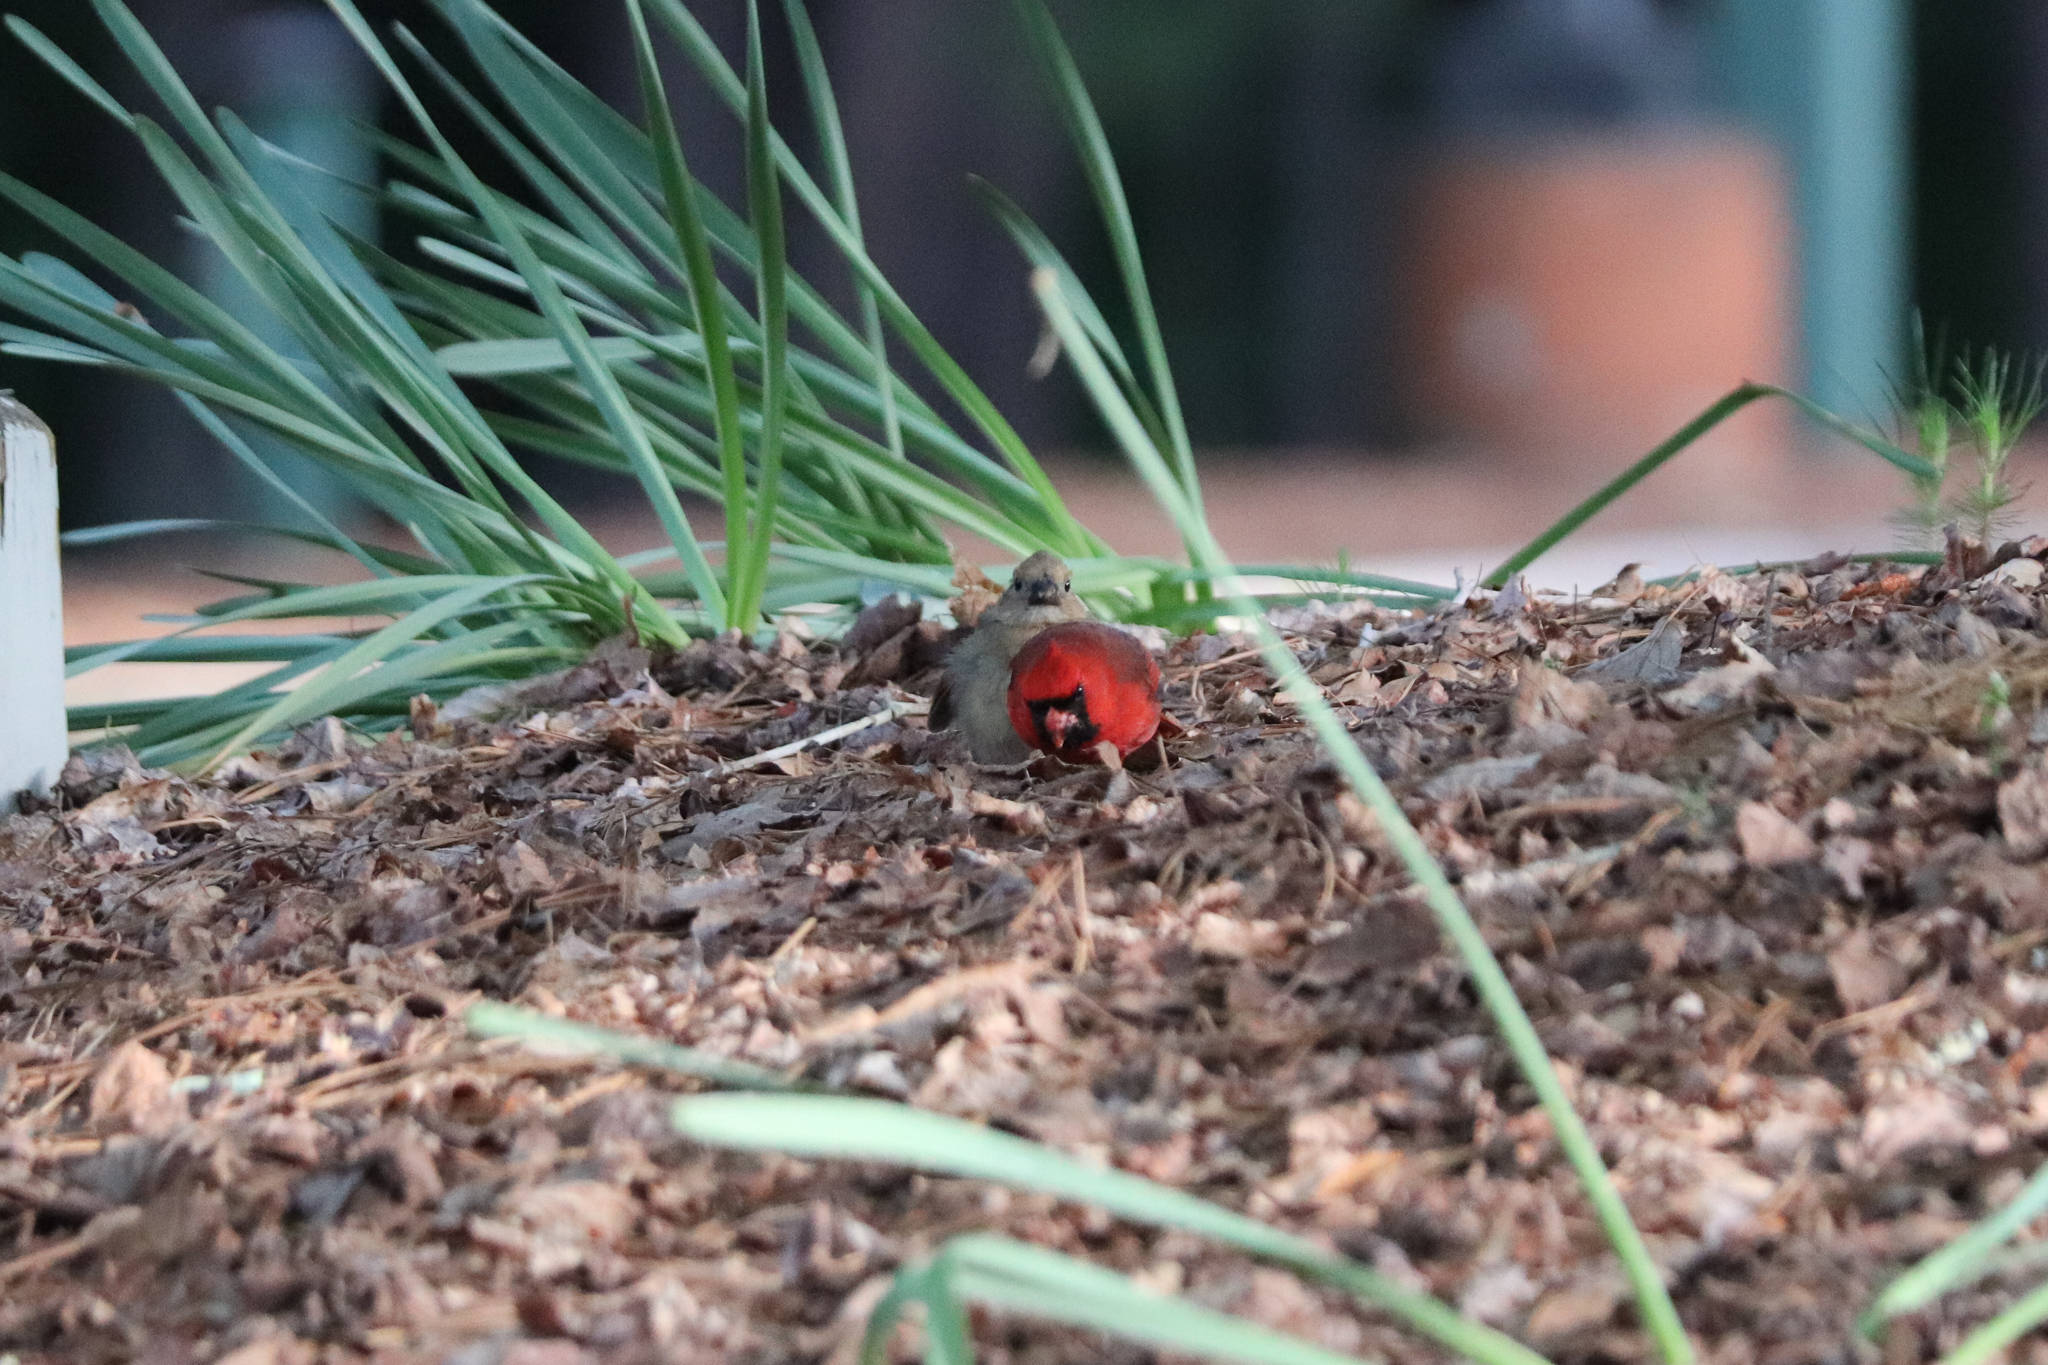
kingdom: Animalia
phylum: Chordata
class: Aves
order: Passeriformes
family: Cardinalidae
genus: Cardinalis
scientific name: Cardinalis cardinalis
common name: Northern cardinal
